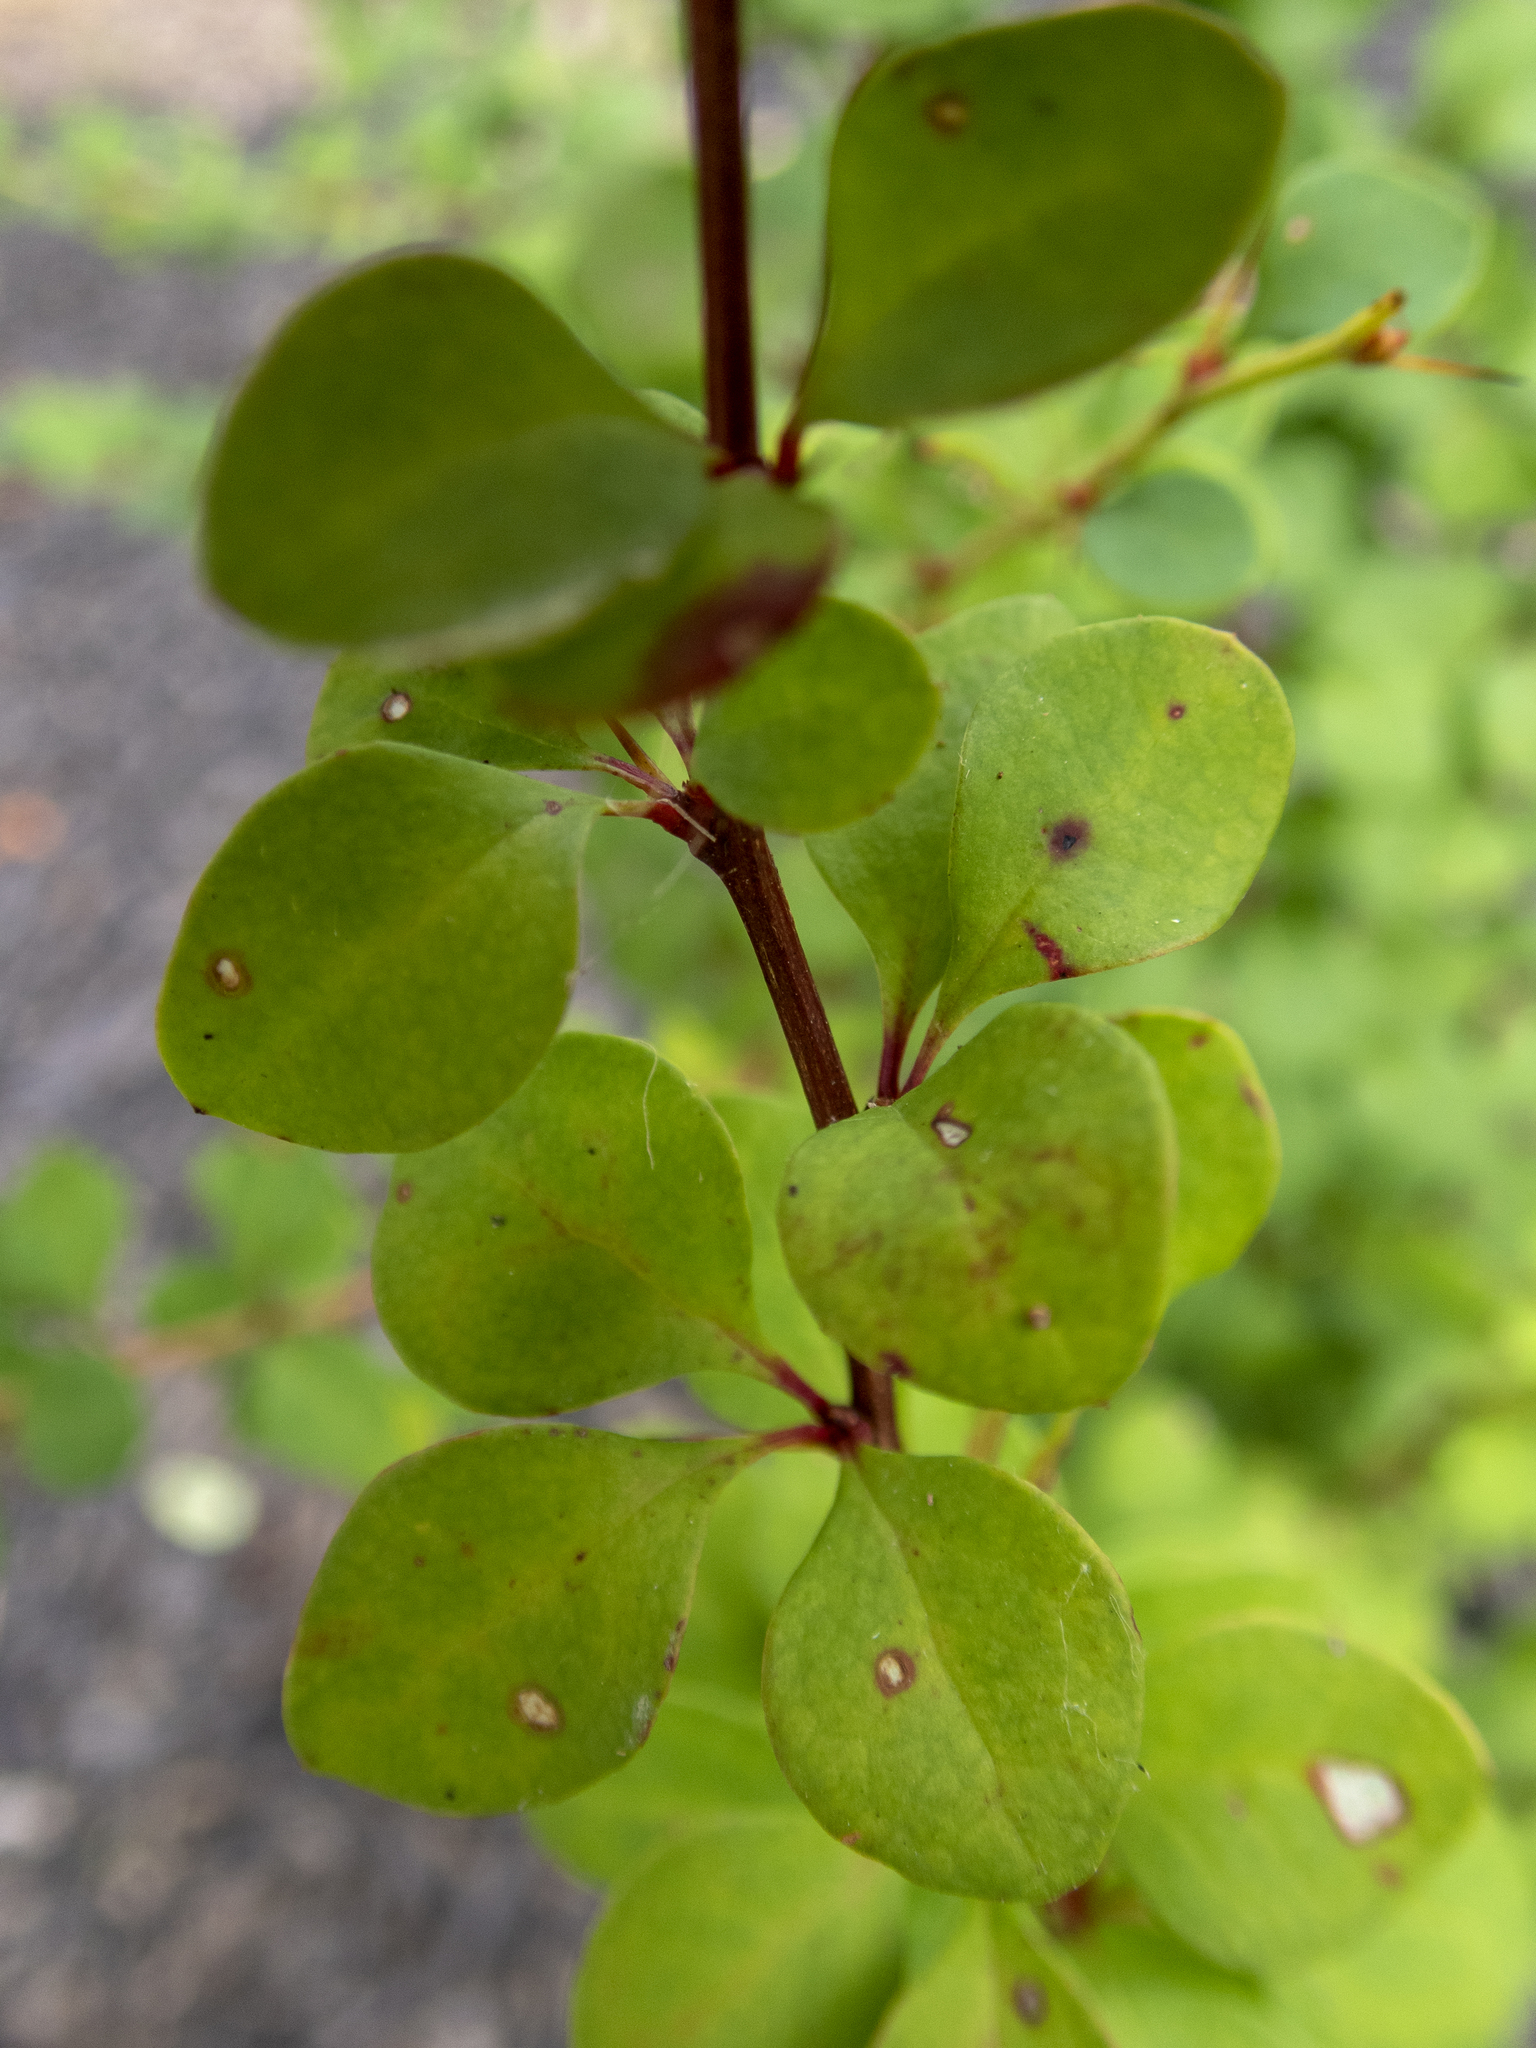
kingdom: Plantae
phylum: Tracheophyta
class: Magnoliopsida
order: Ranunculales
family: Berberidaceae
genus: Berberis
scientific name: Berberis thunbergii
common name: Japanese barberry
